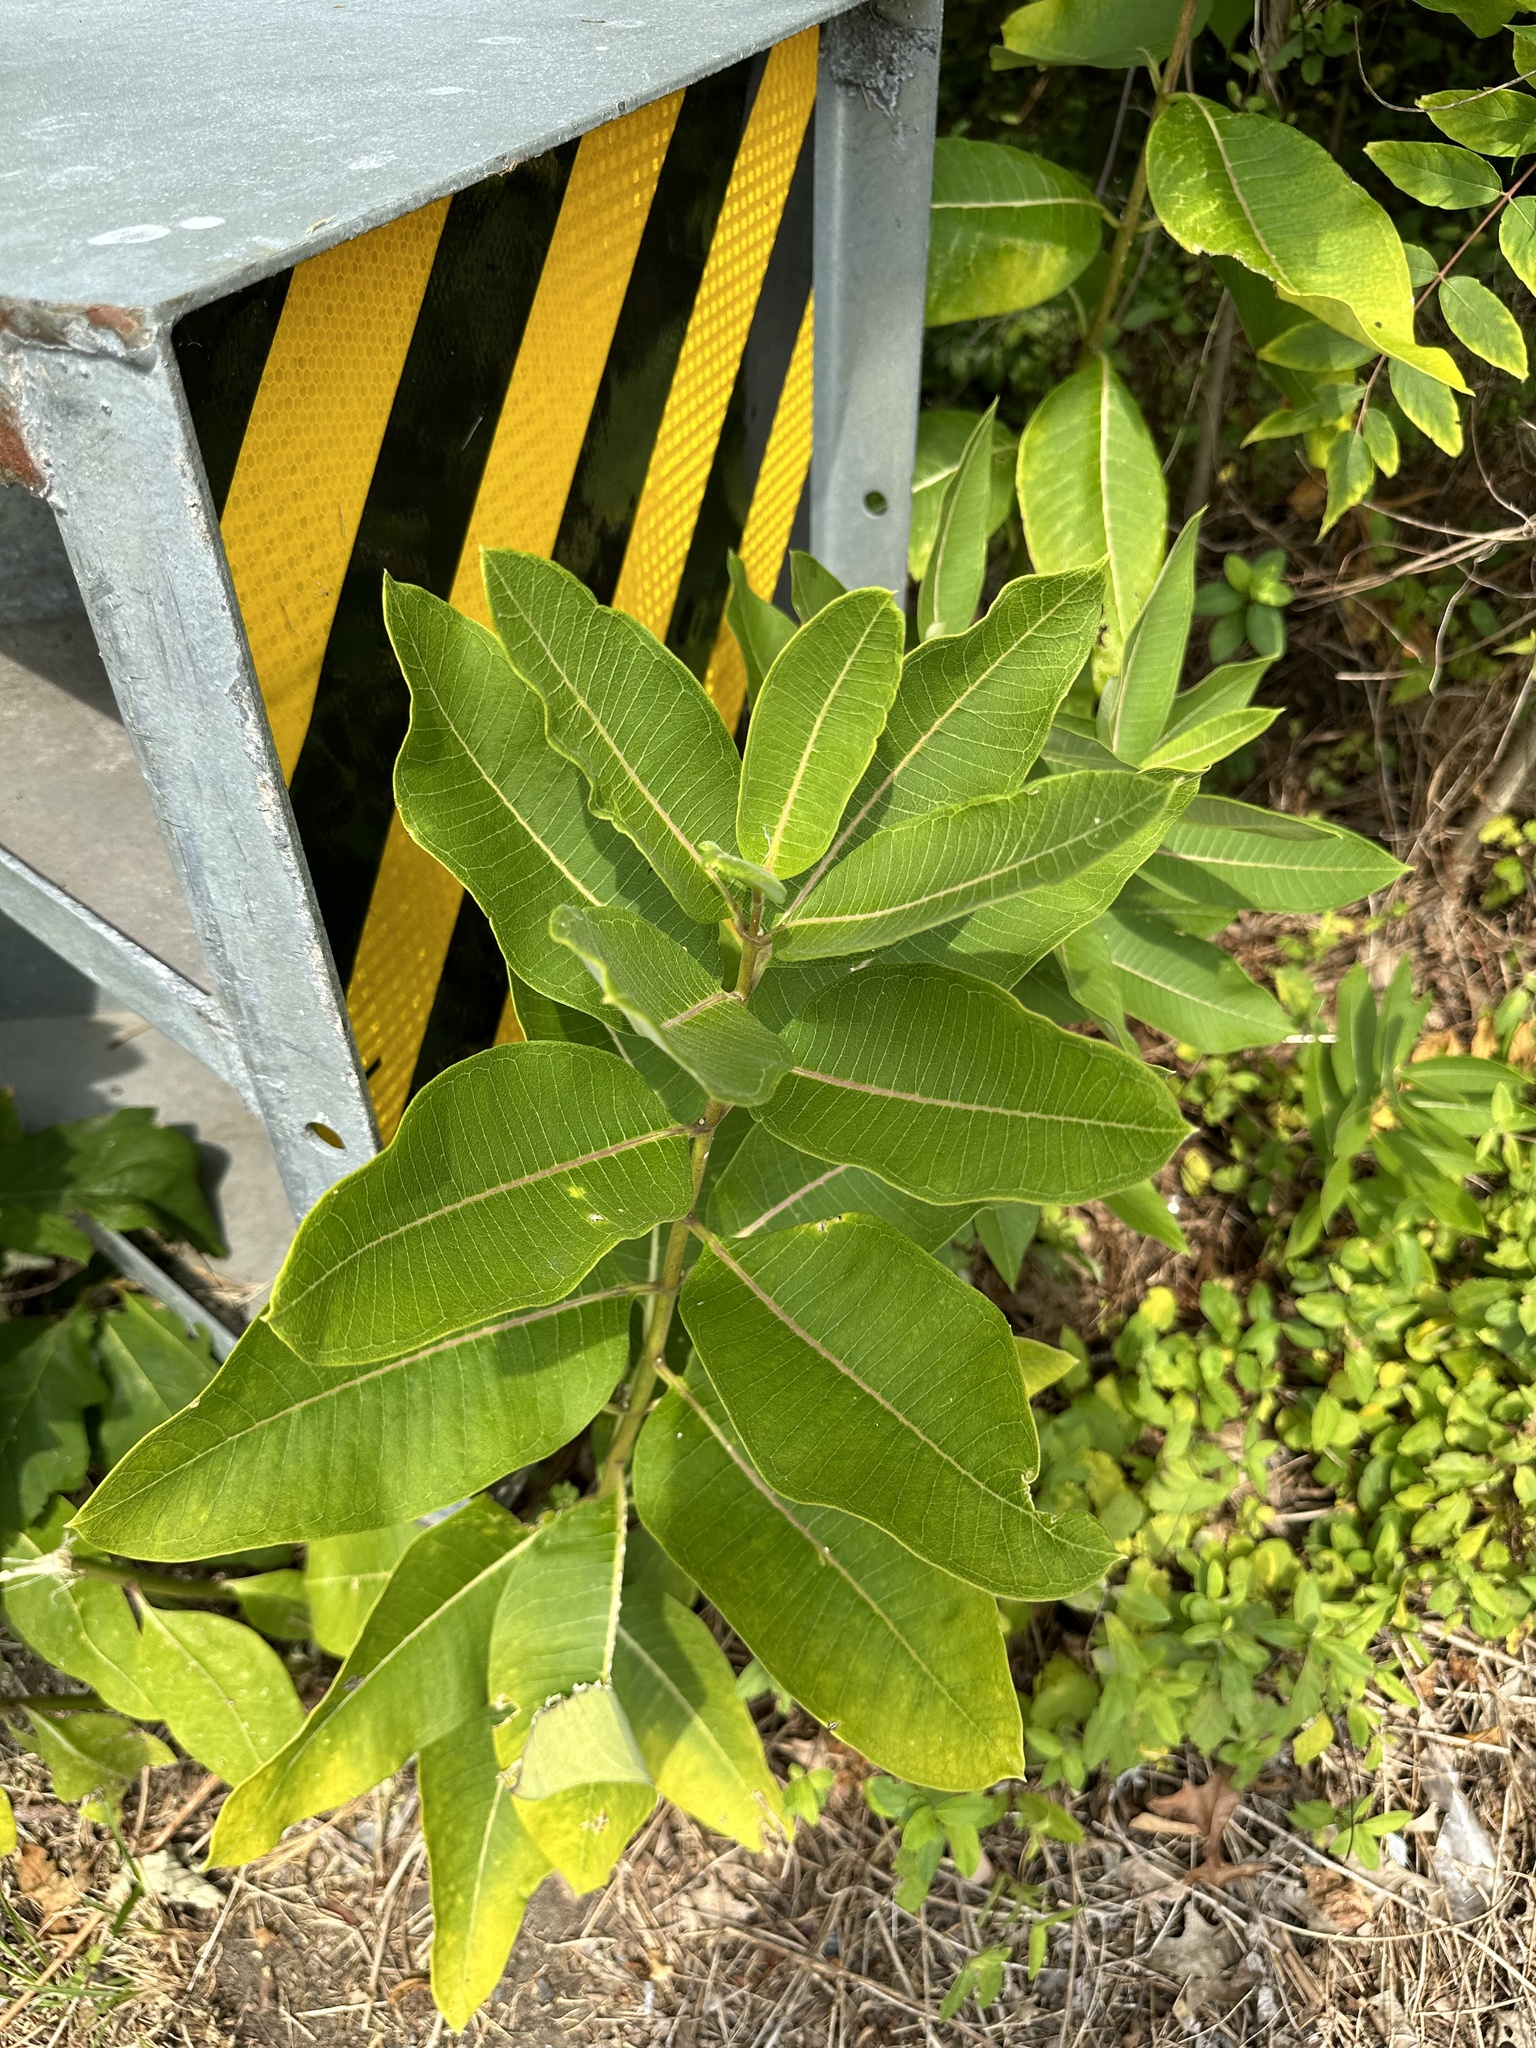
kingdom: Plantae
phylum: Tracheophyta
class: Magnoliopsida
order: Gentianales
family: Apocynaceae
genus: Asclepias
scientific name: Asclepias syriaca
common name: Common milkweed
